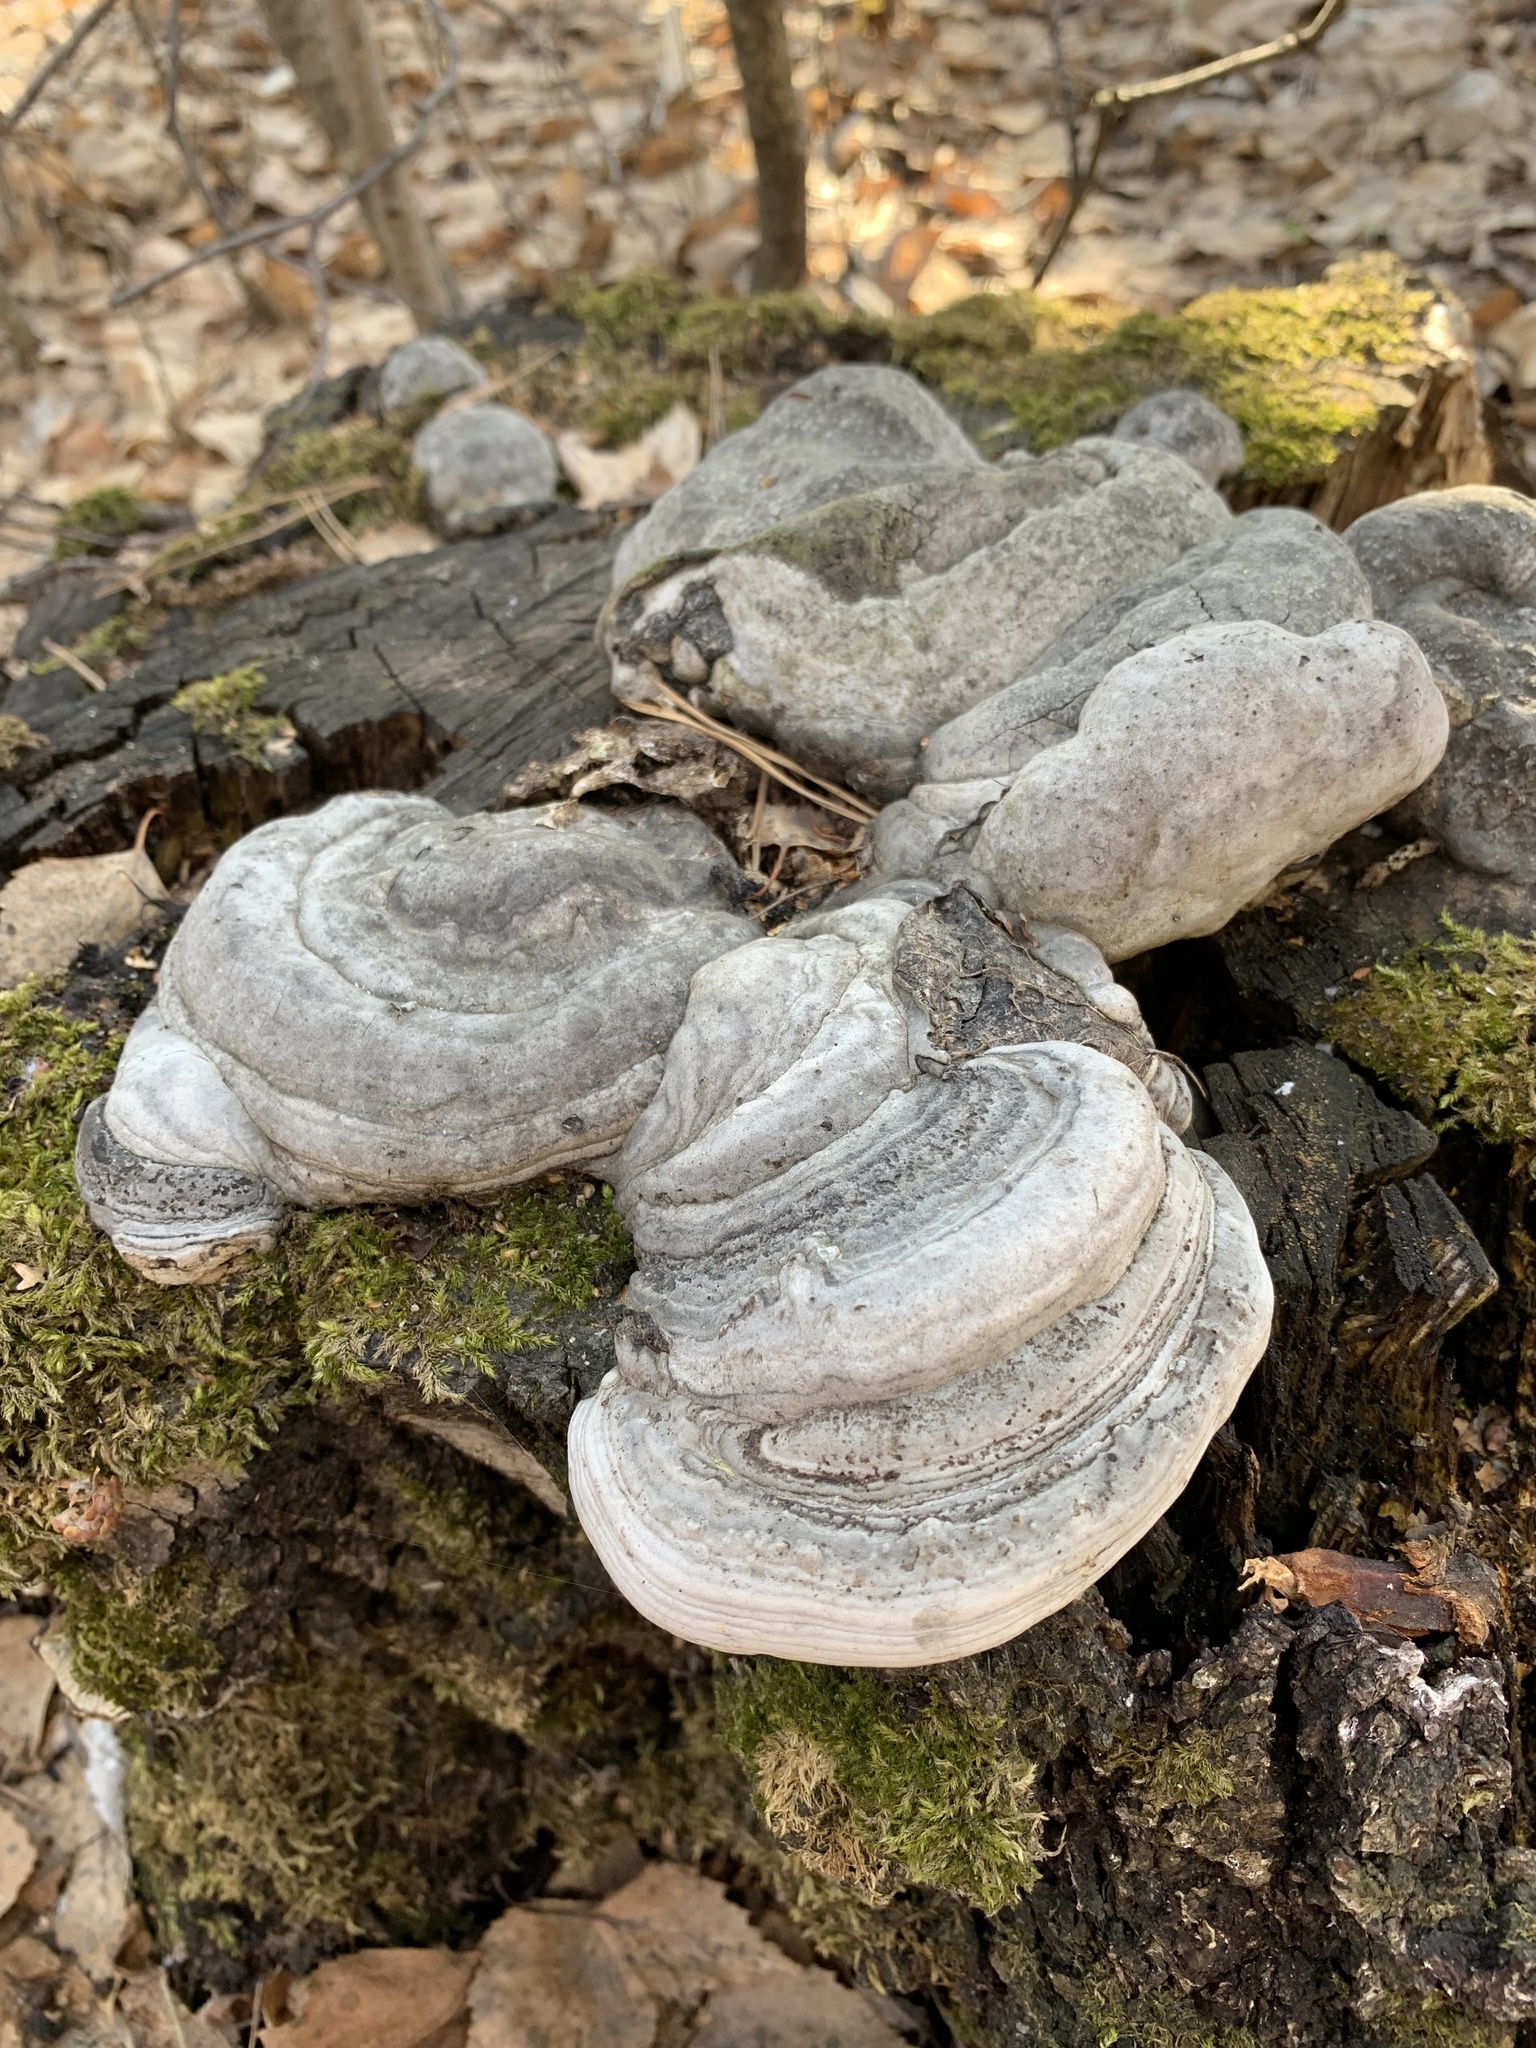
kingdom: Fungi
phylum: Basidiomycota
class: Agaricomycetes
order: Polyporales
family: Polyporaceae
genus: Fomes
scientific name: Fomes fomentarius
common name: Hoof fungus
